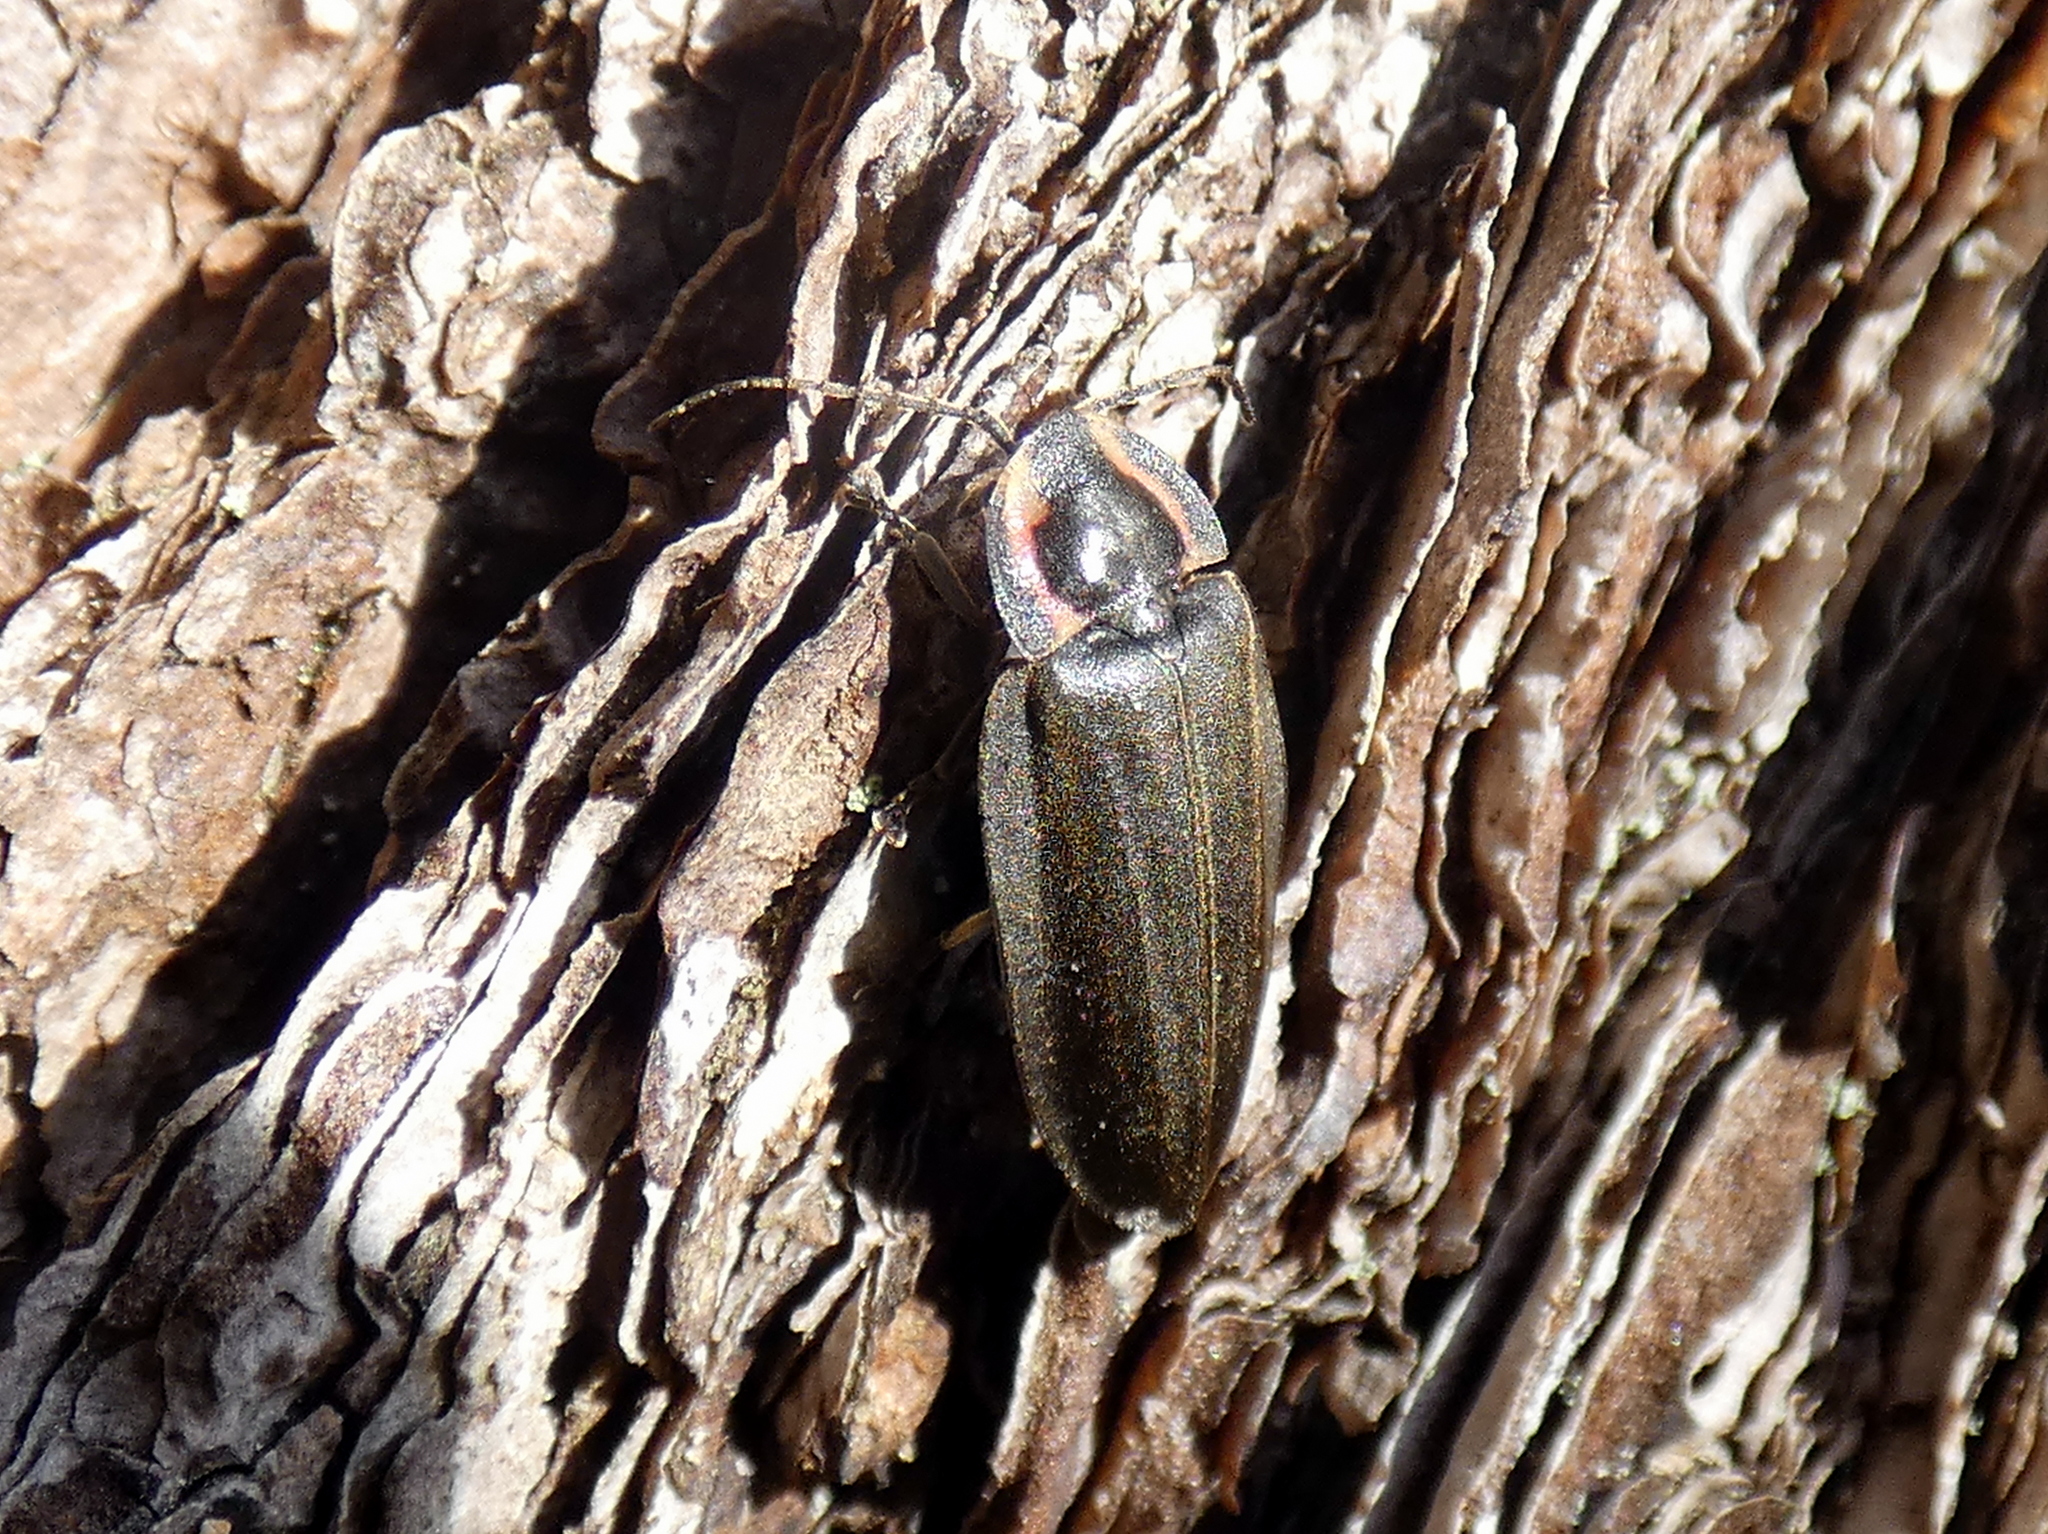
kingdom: Animalia
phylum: Arthropoda
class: Insecta
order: Coleoptera
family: Lampyridae
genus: Photinus
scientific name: Photinus corrusca
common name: Winter firefly
